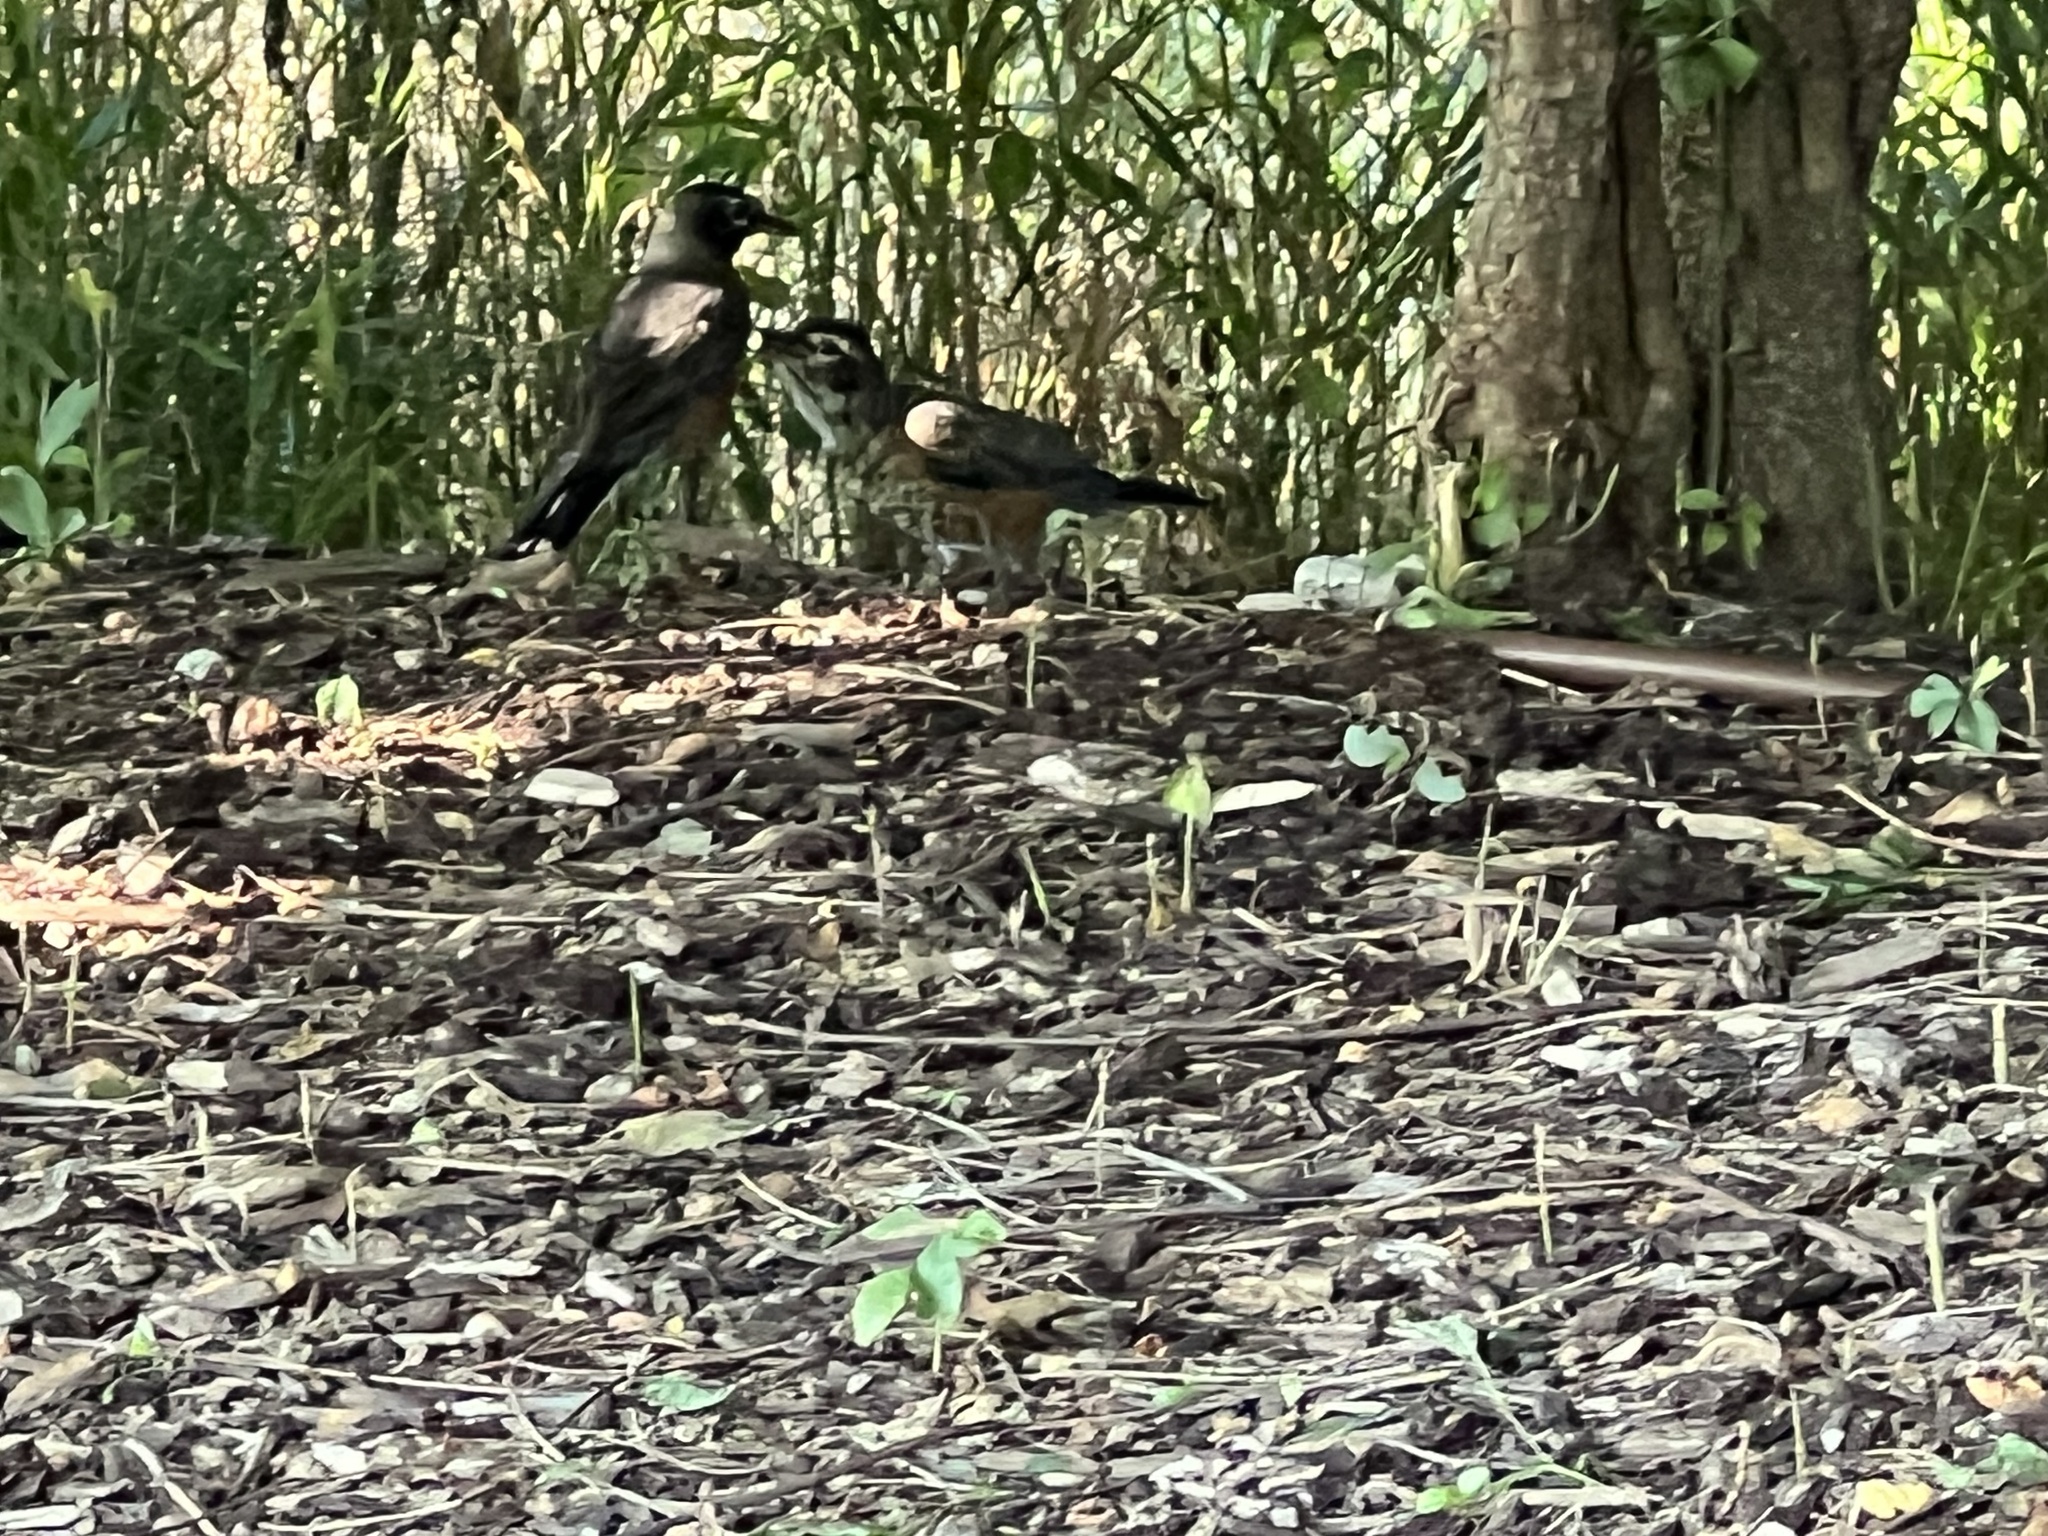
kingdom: Animalia
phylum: Chordata
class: Aves
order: Passeriformes
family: Turdidae
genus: Turdus
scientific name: Turdus migratorius
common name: American robin
